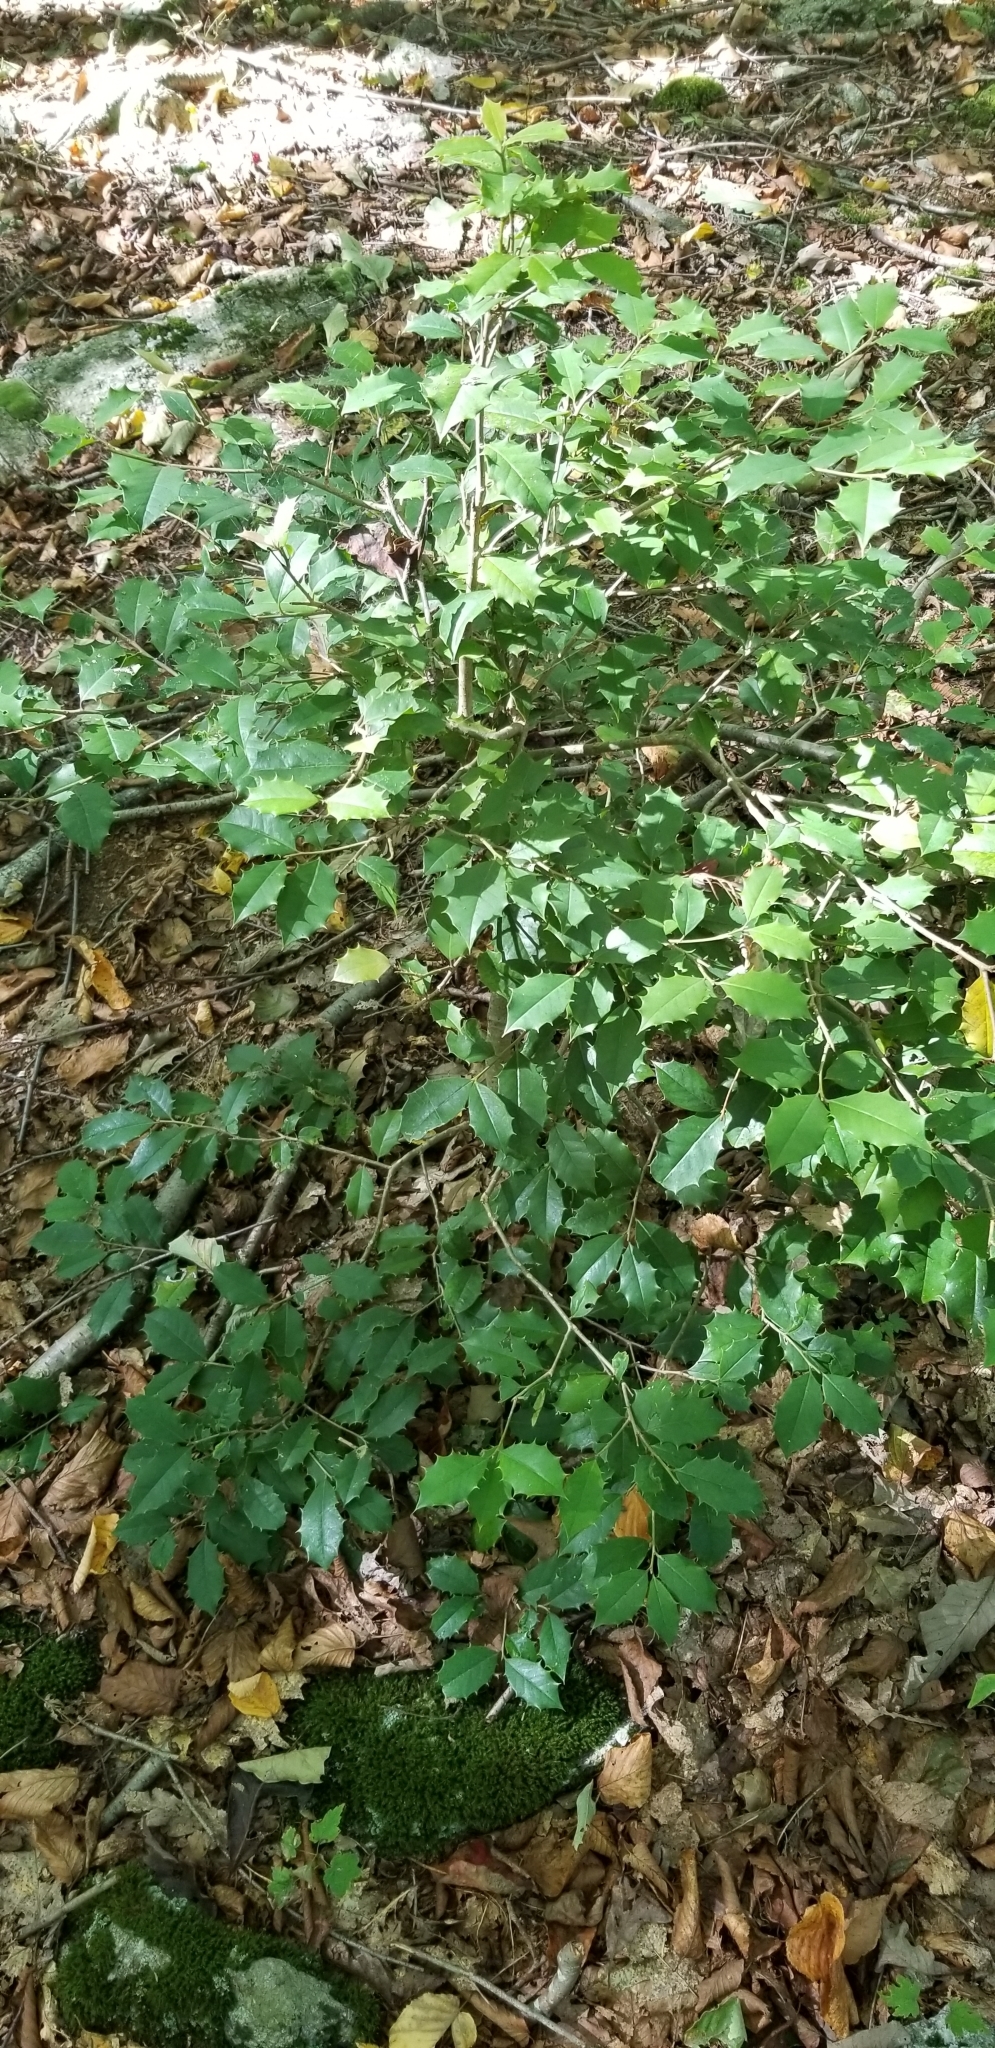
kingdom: Plantae
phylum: Tracheophyta
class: Magnoliopsida
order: Aquifoliales
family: Aquifoliaceae
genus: Ilex
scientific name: Ilex opaca
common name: American holly
